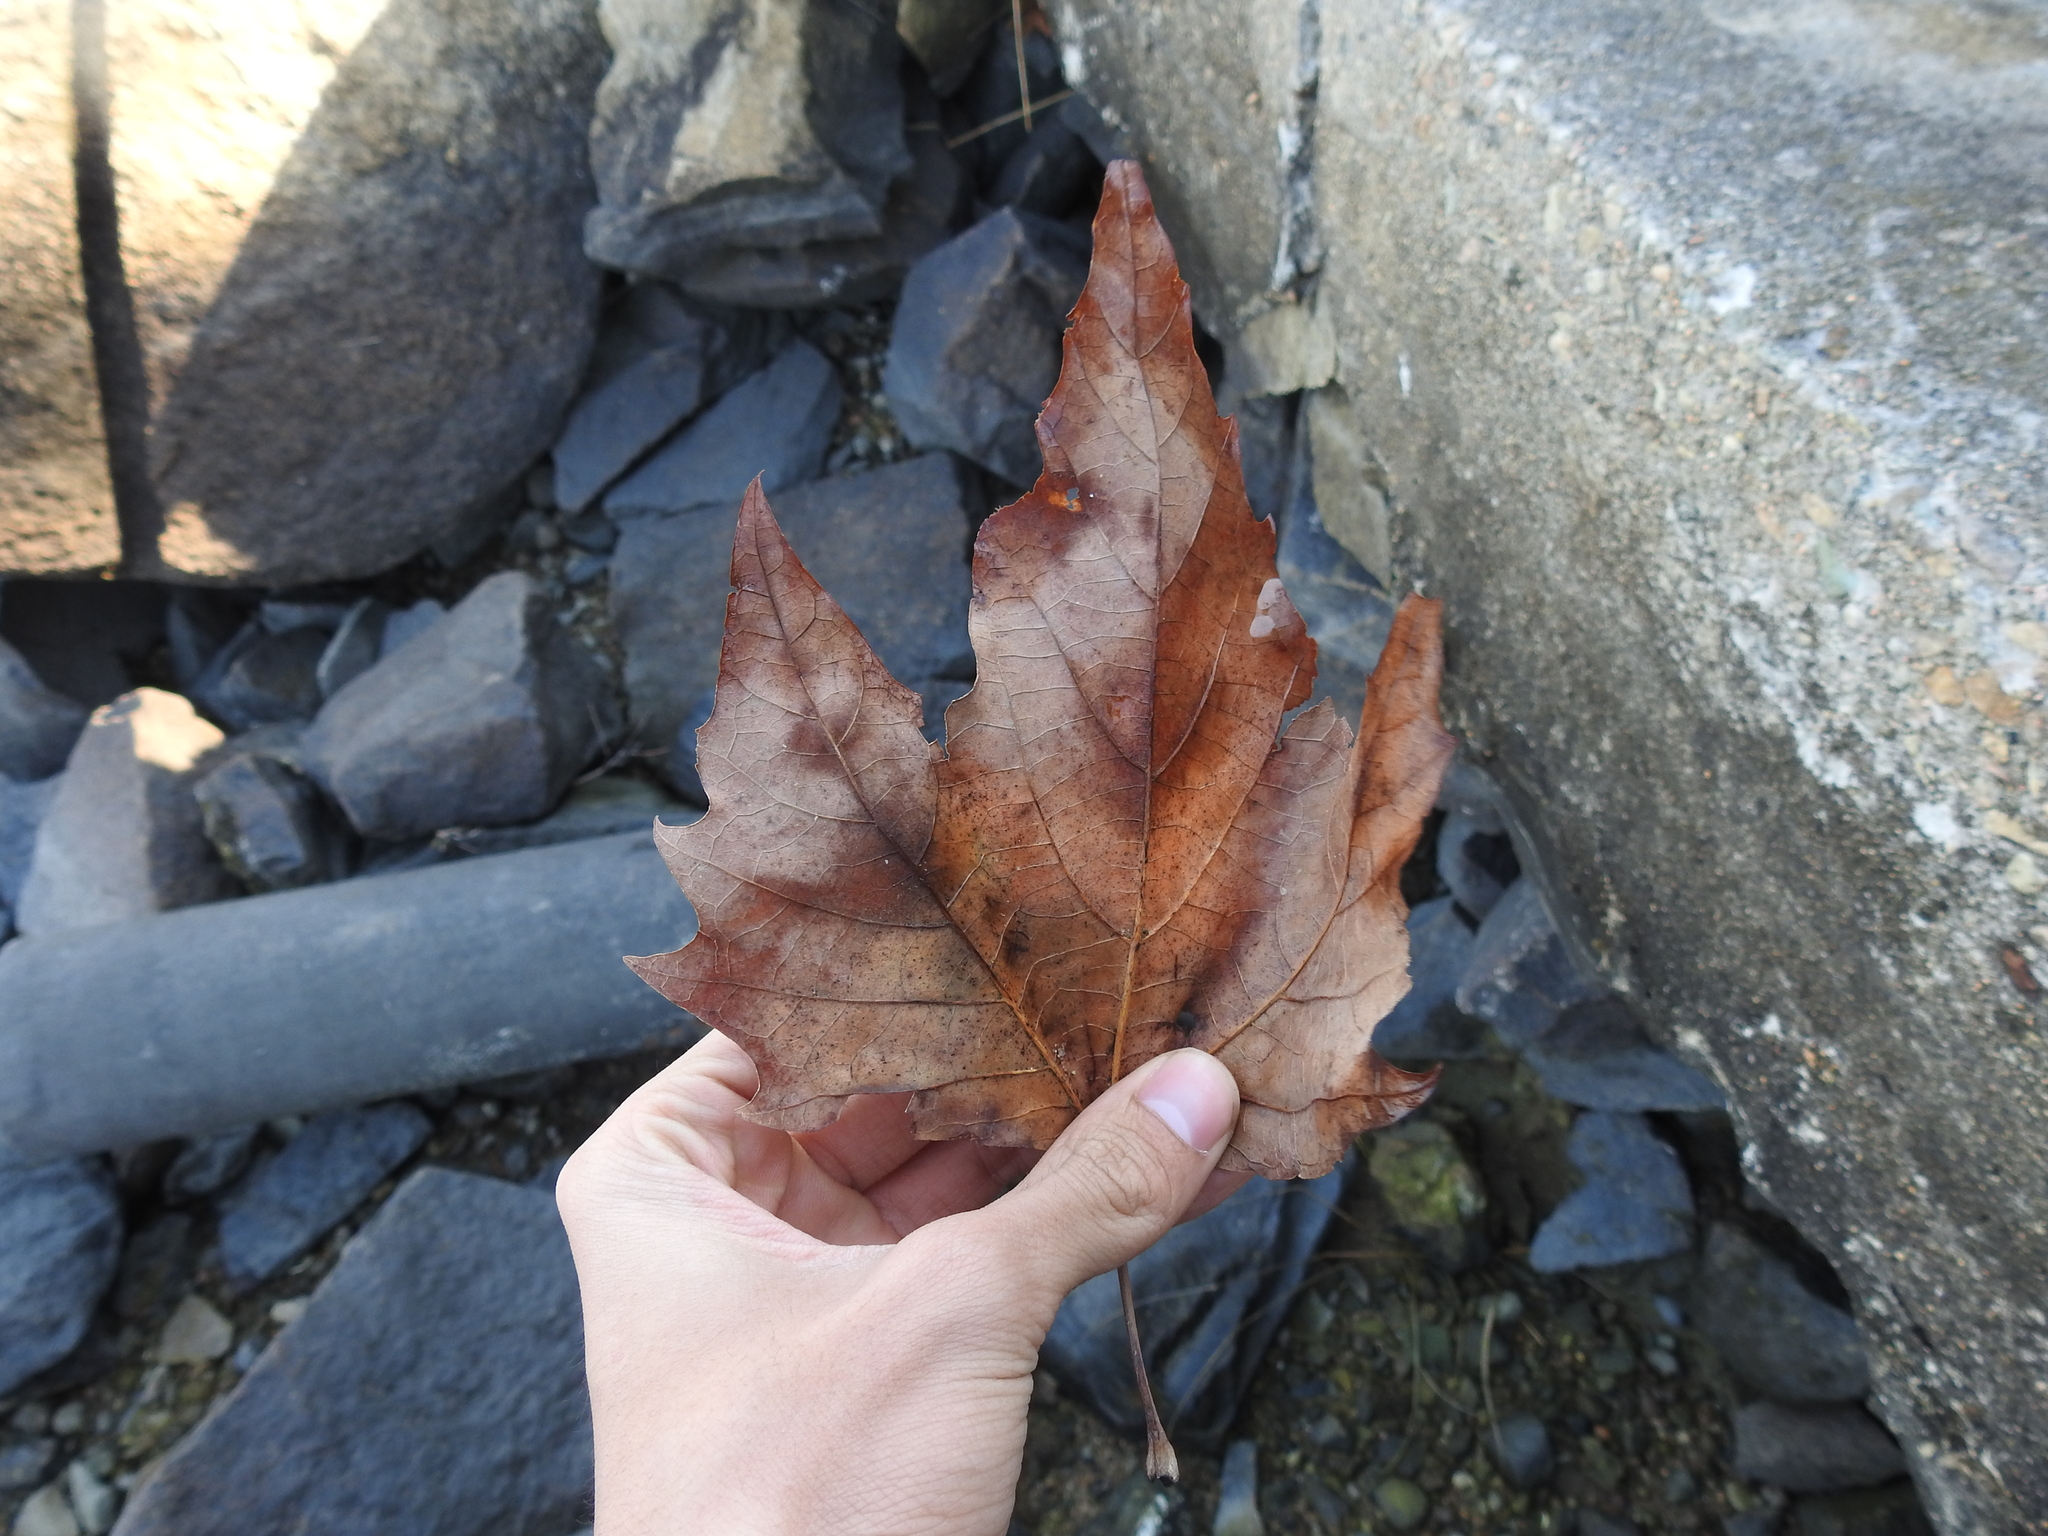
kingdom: Plantae
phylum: Tracheophyta
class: Magnoliopsida
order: Sapindales
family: Sapindaceae
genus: Acer
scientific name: Acer rubrum
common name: Red maple
